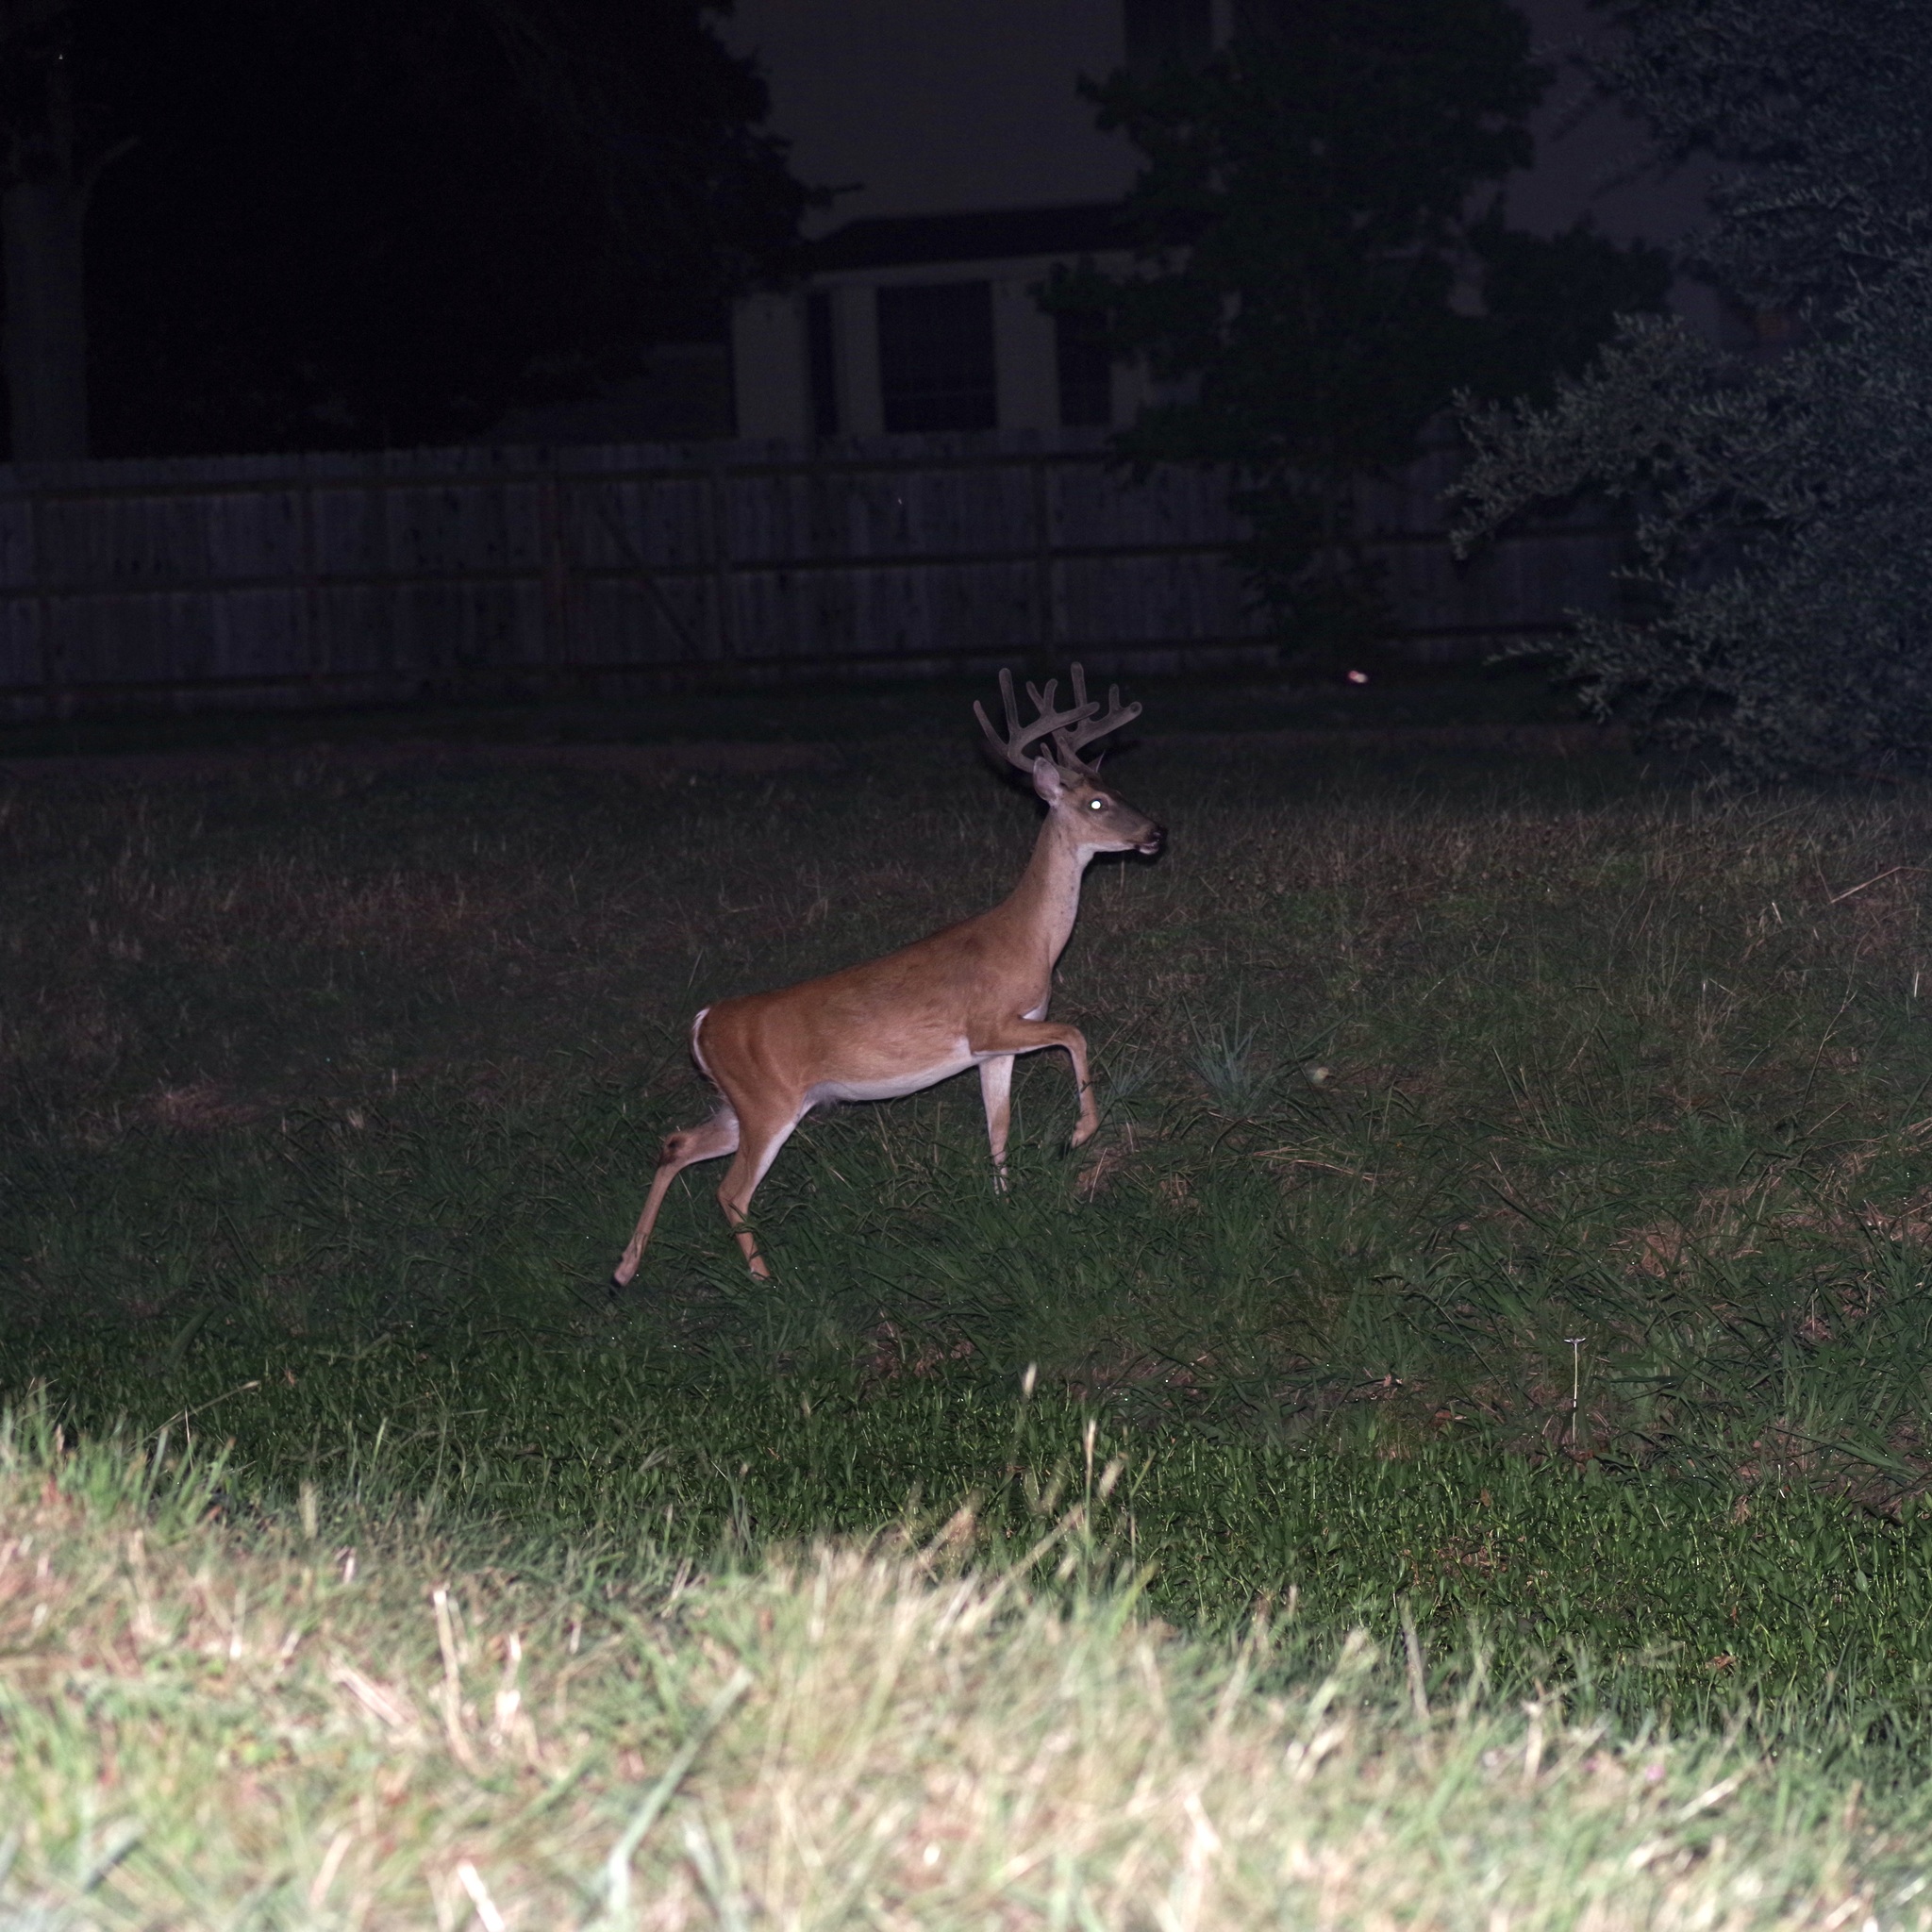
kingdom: Animalia
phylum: Chordata
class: Mammalia
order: Artiodactyla
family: Cervidae
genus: Odocoileus
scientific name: Odocoileus virginianus
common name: White-tailed deer
